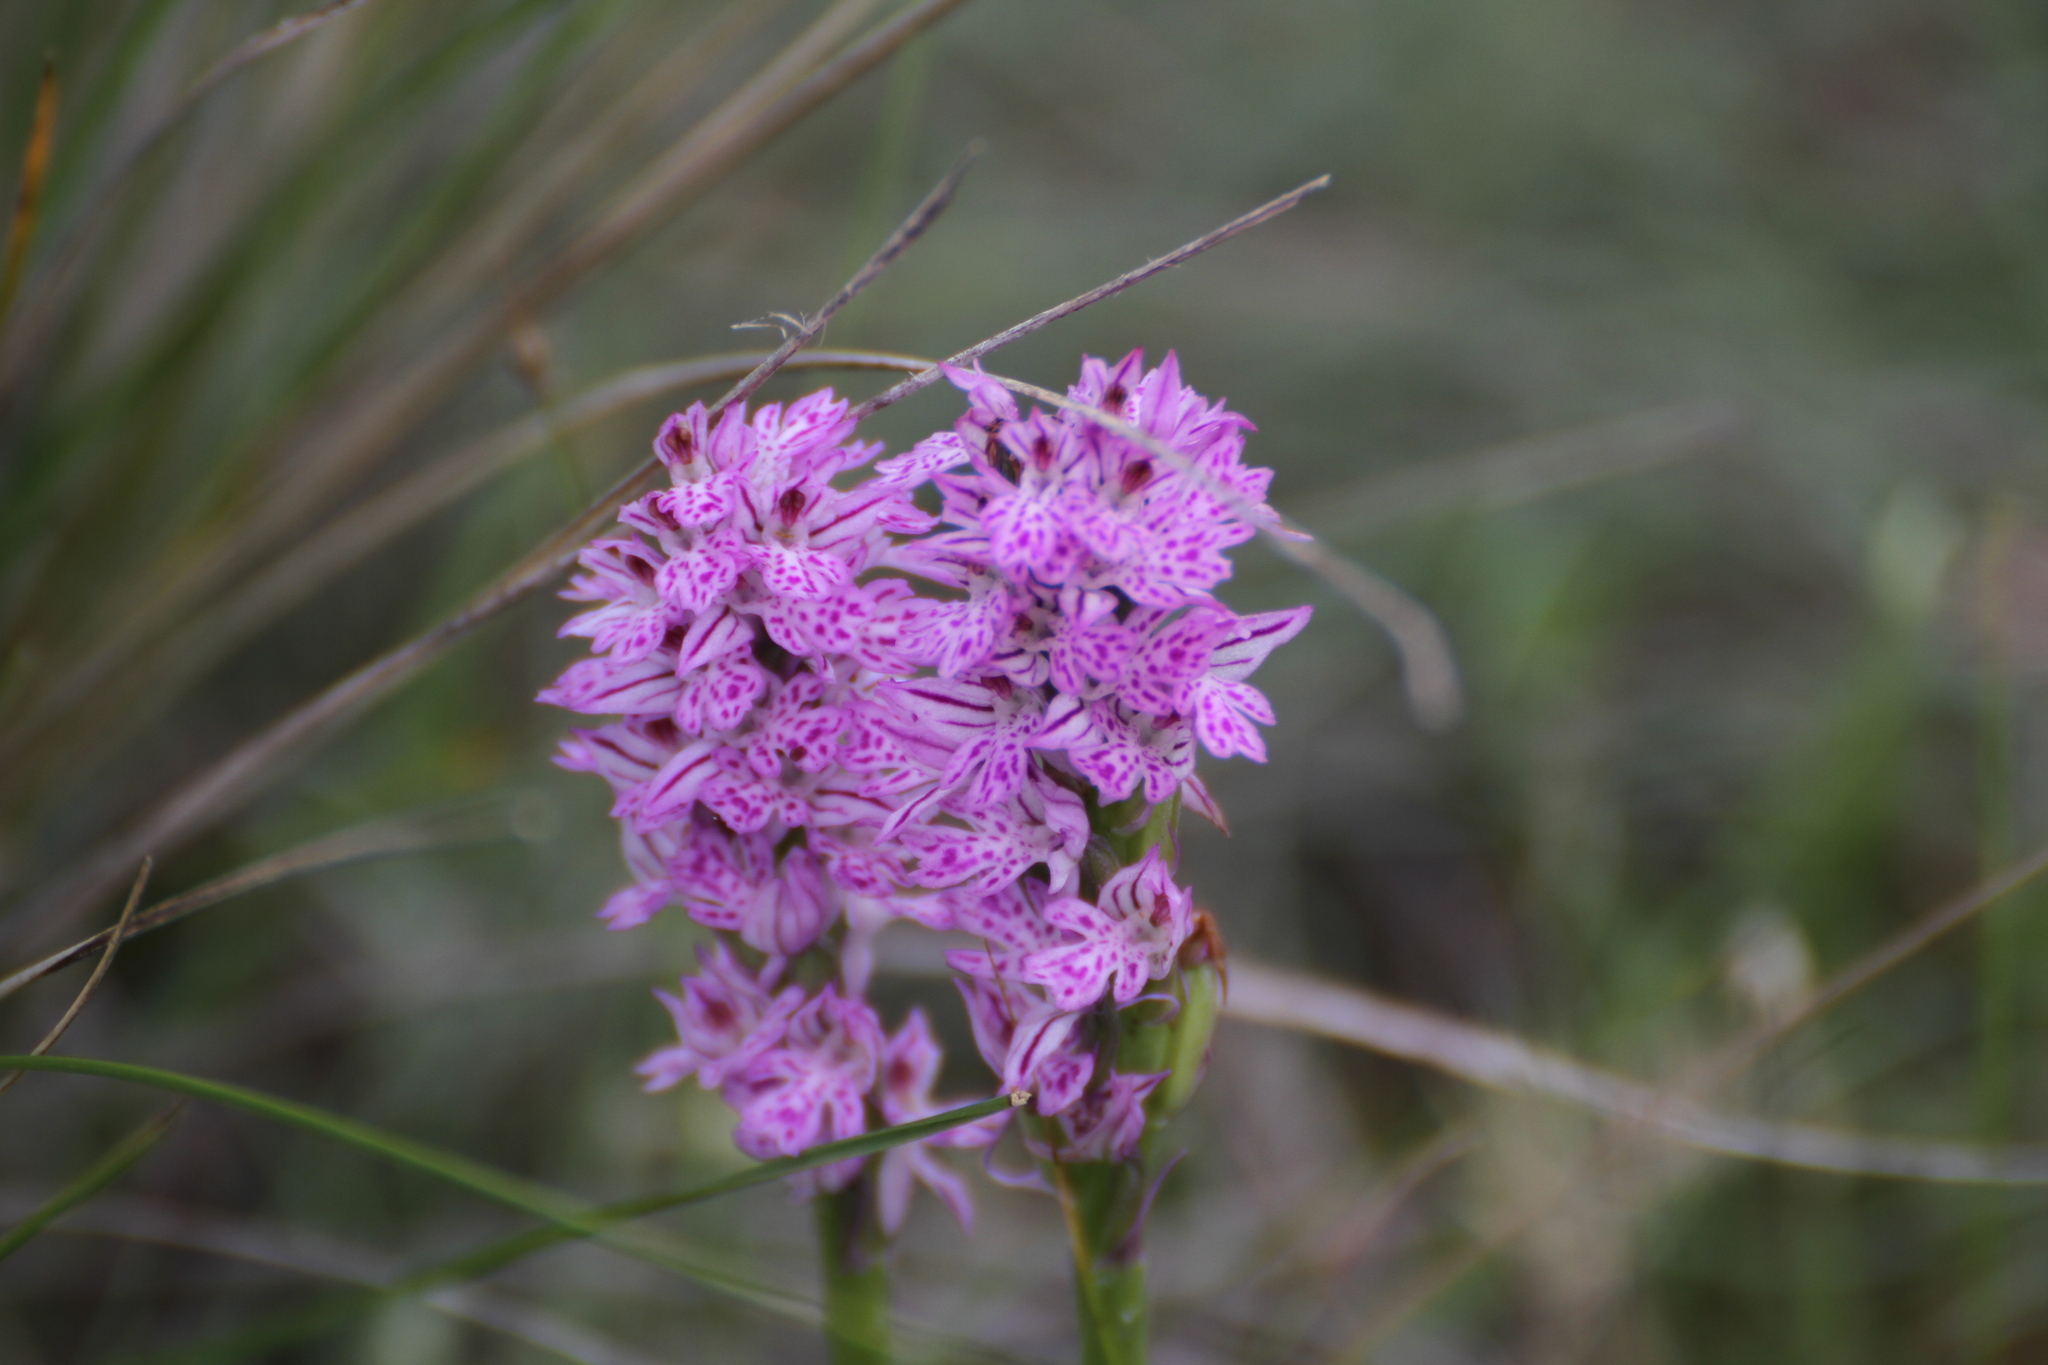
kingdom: Plantae
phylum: Tracheophyta
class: Liliopsida
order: Asparagales
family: Orchidaceae
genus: Neotinea
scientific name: Neotinea tridentata
